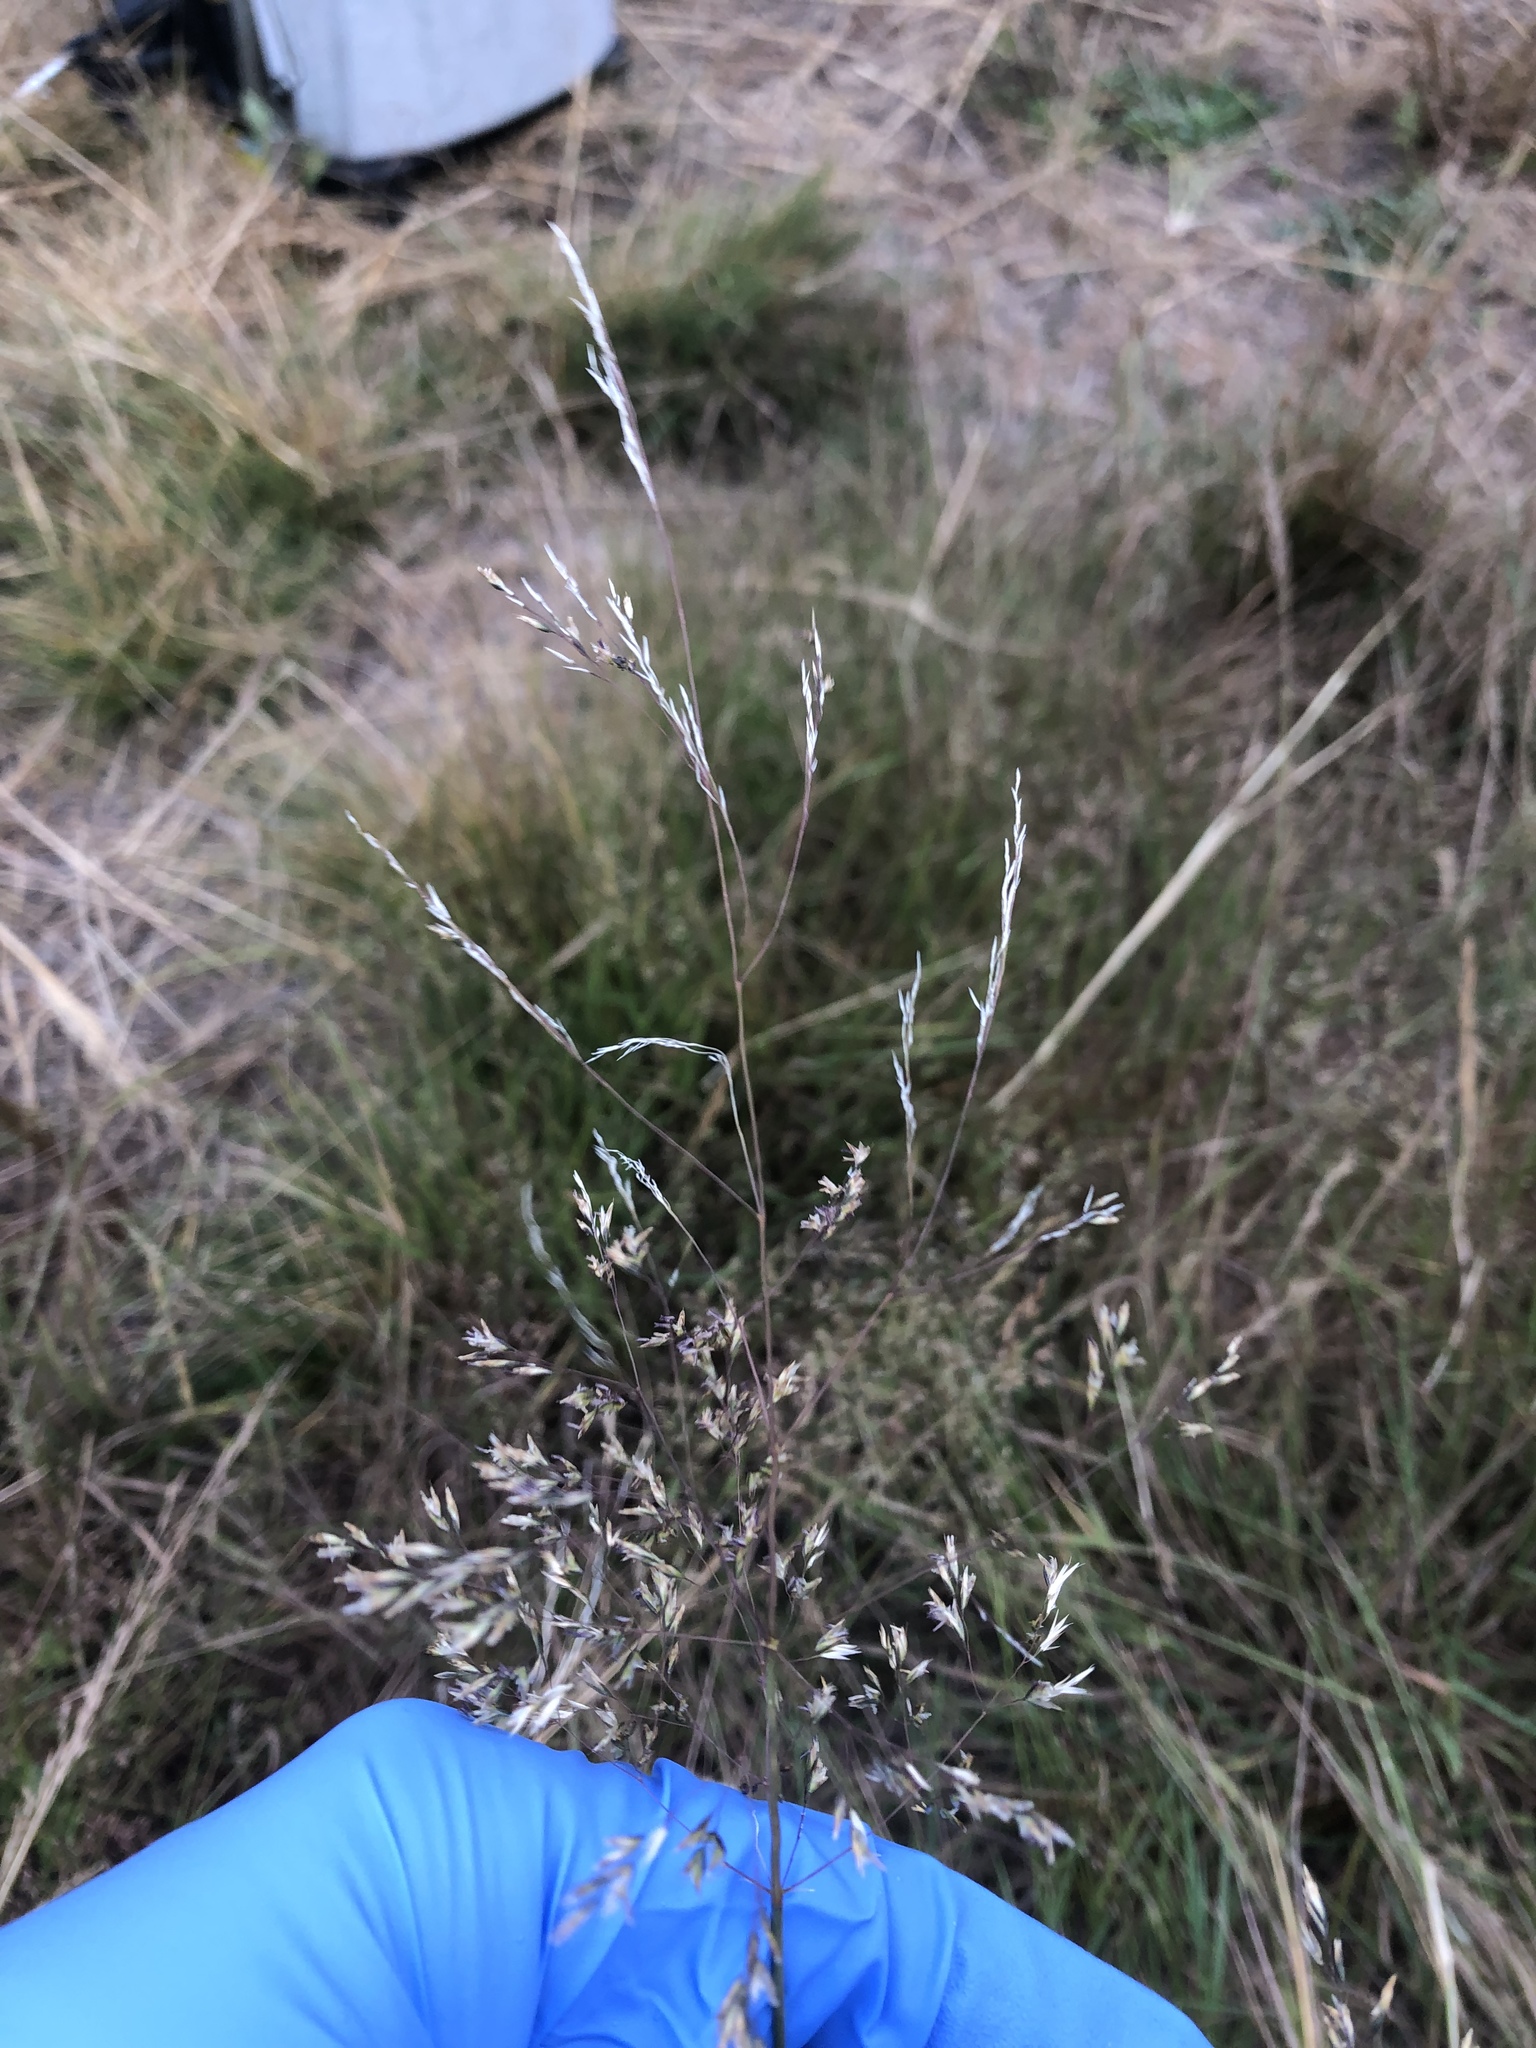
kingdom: Plantae
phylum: Tracheophyta
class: Liliopsida
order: Poales
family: Poaceae
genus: Agrostis
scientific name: Agrostis gigantea
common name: Black bent
